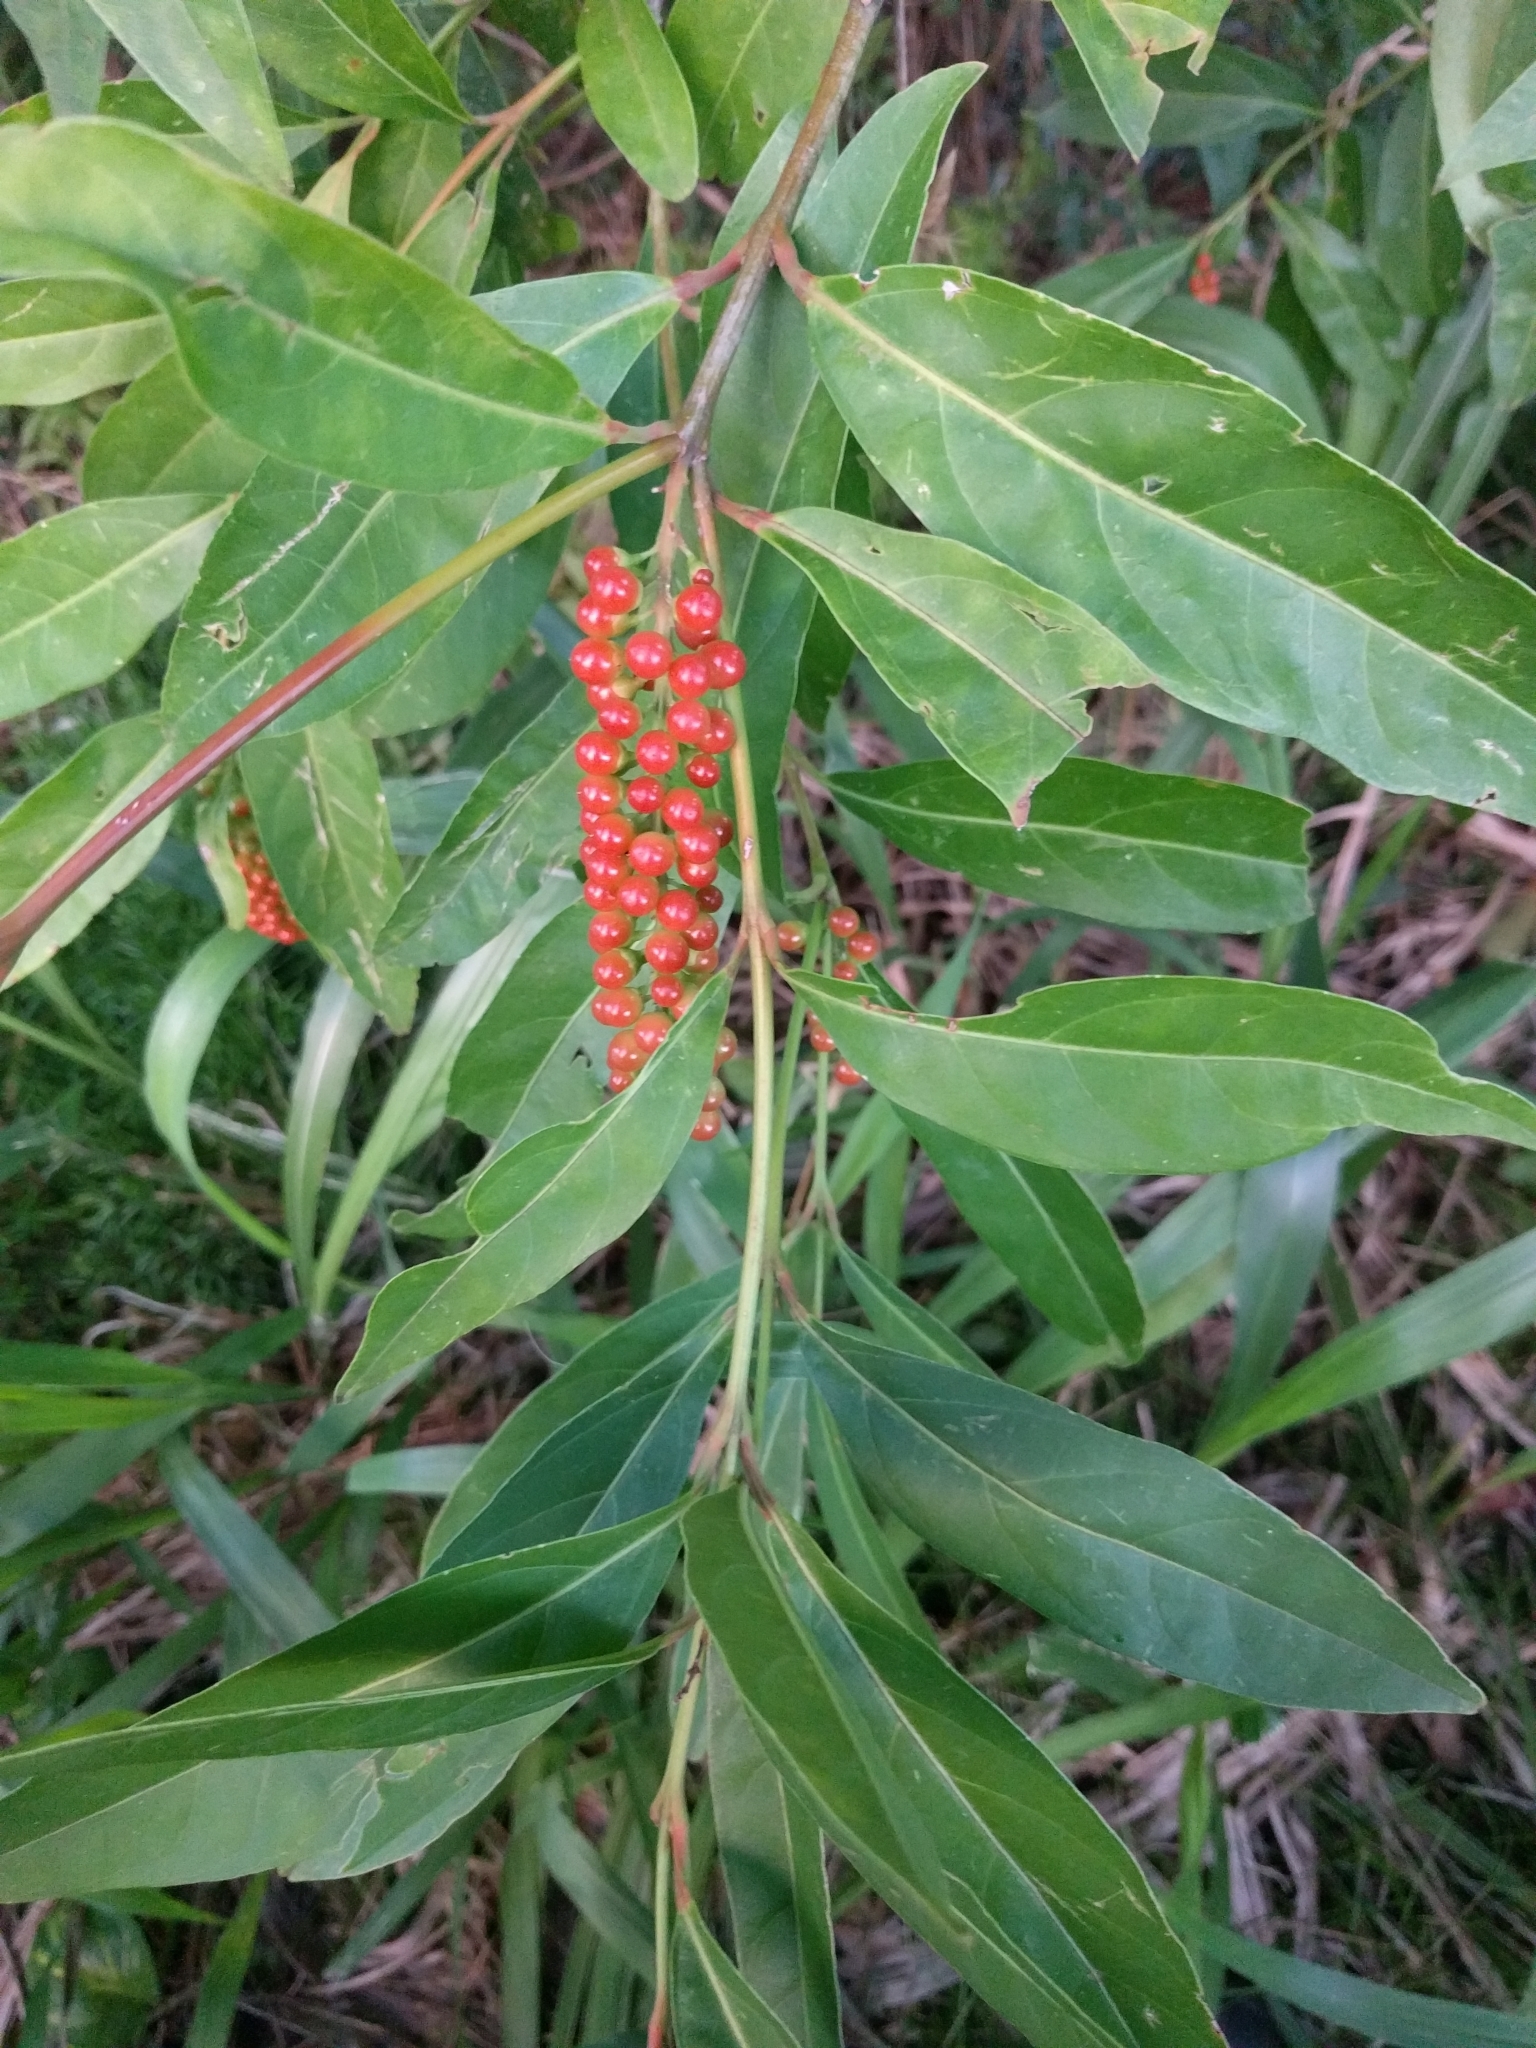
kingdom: Plantae
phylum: Tracheophyta
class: Magnoliopsida
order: Lamiales
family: Verbenaceae
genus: Citharexylum
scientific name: Citharexylum caudatum
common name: Fiddlewood
